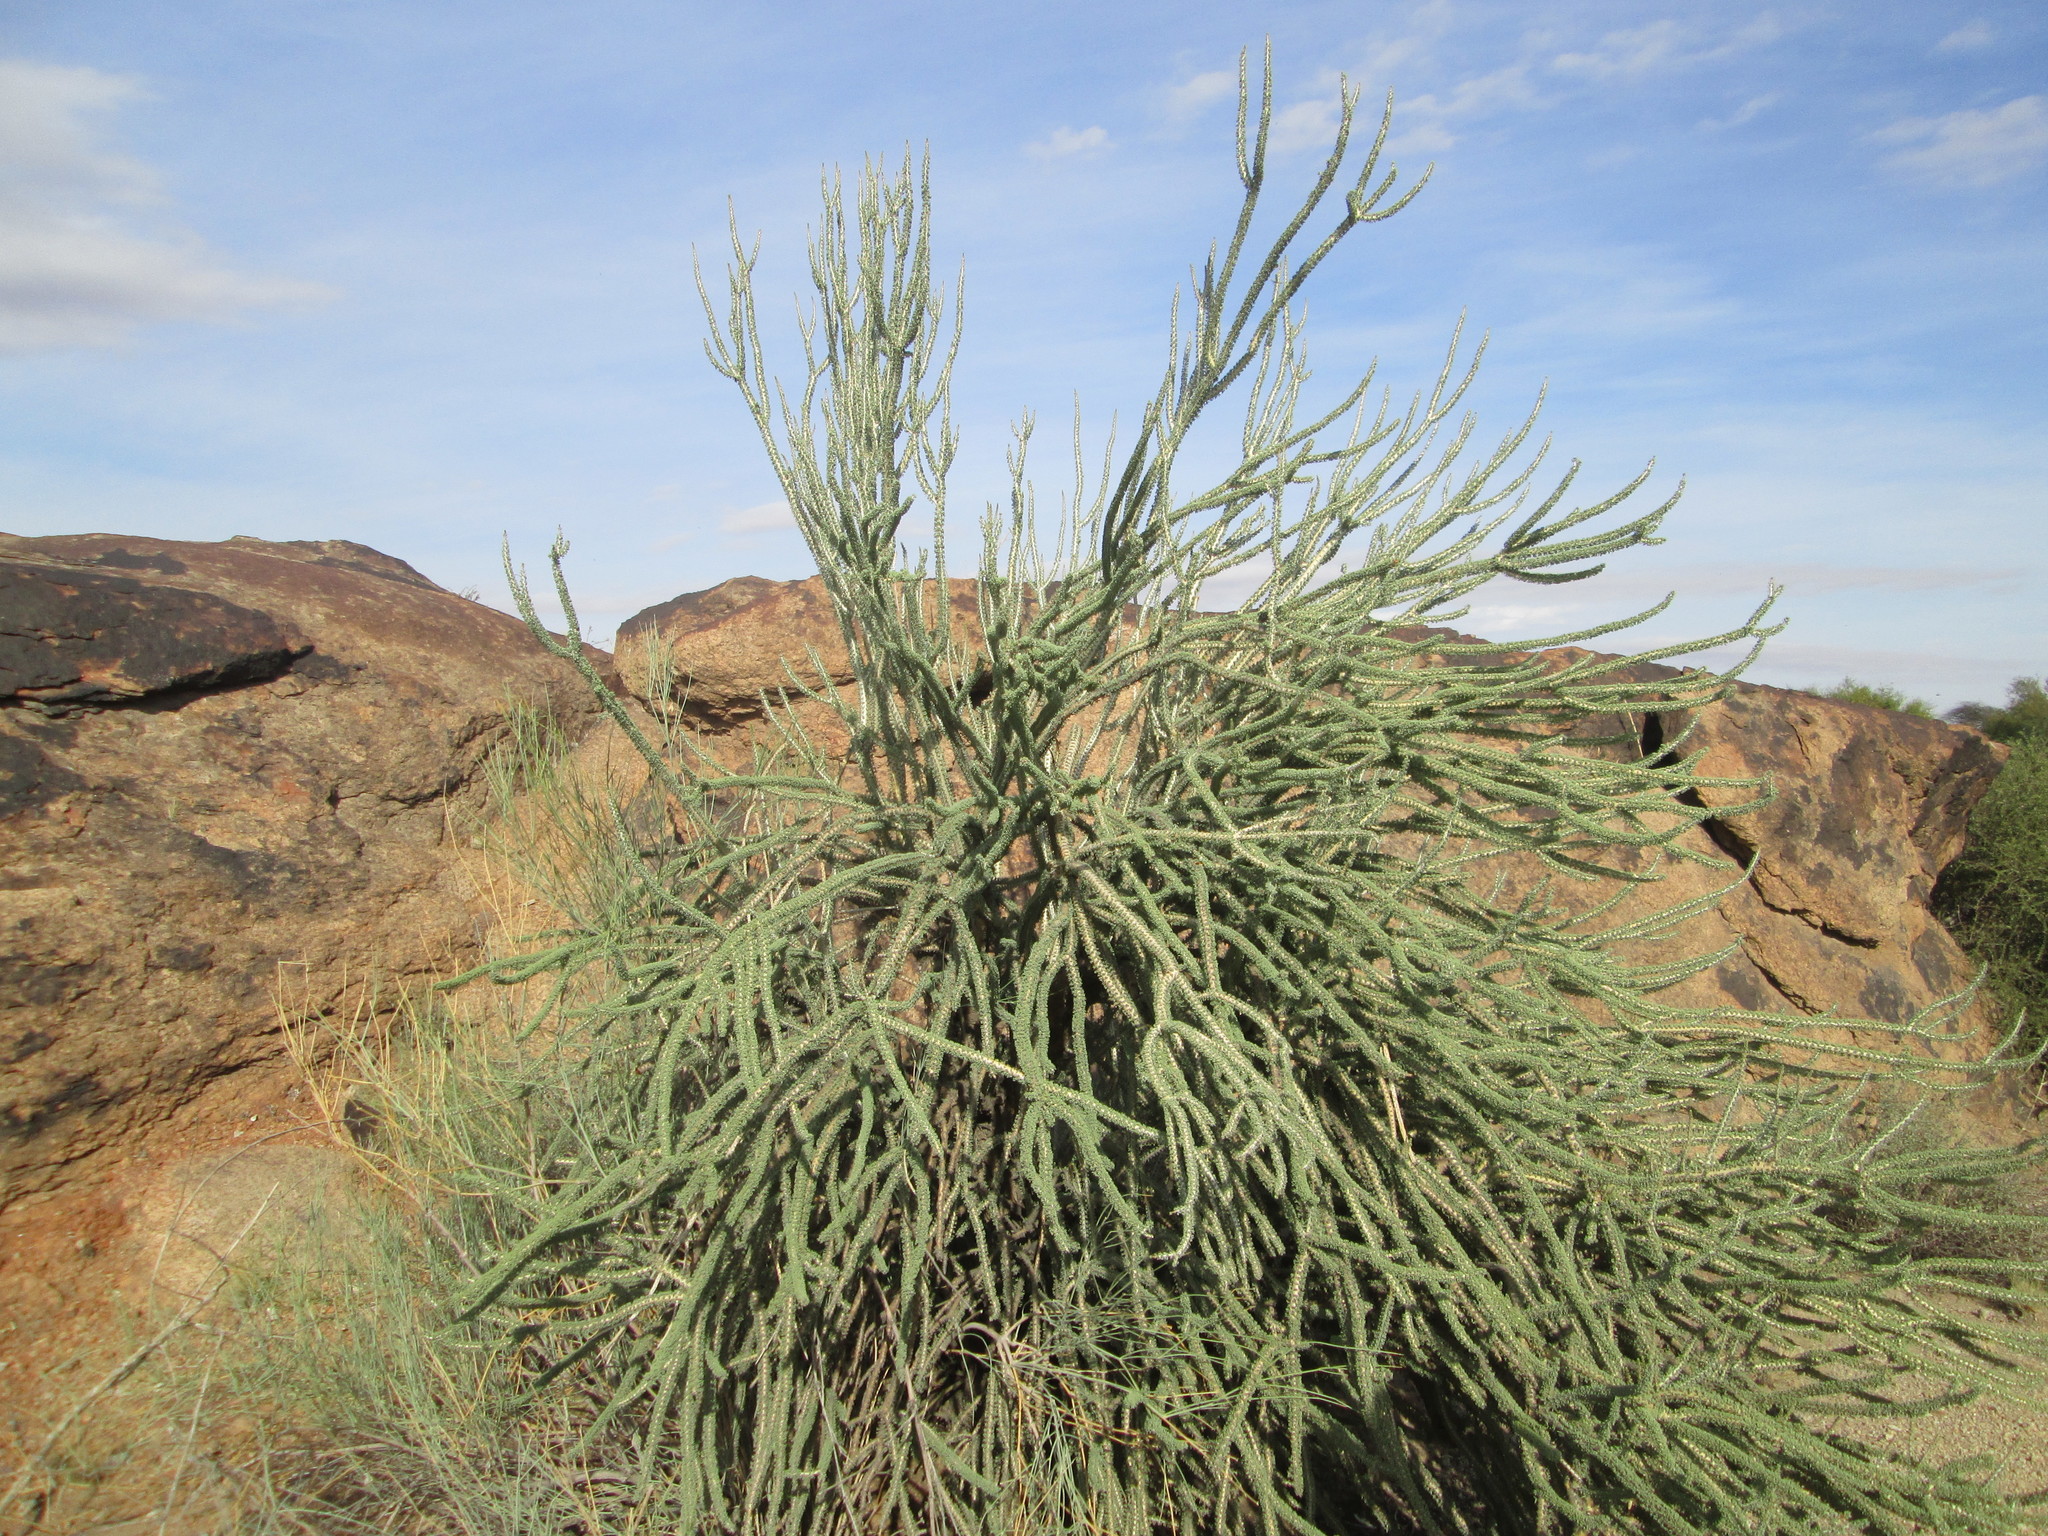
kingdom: Plantae
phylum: Tracheophyta
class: Magnoliopsida
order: Caryophyllales
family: Didiereaceae
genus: Portulacaria
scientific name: Portulacaria namaquensis
